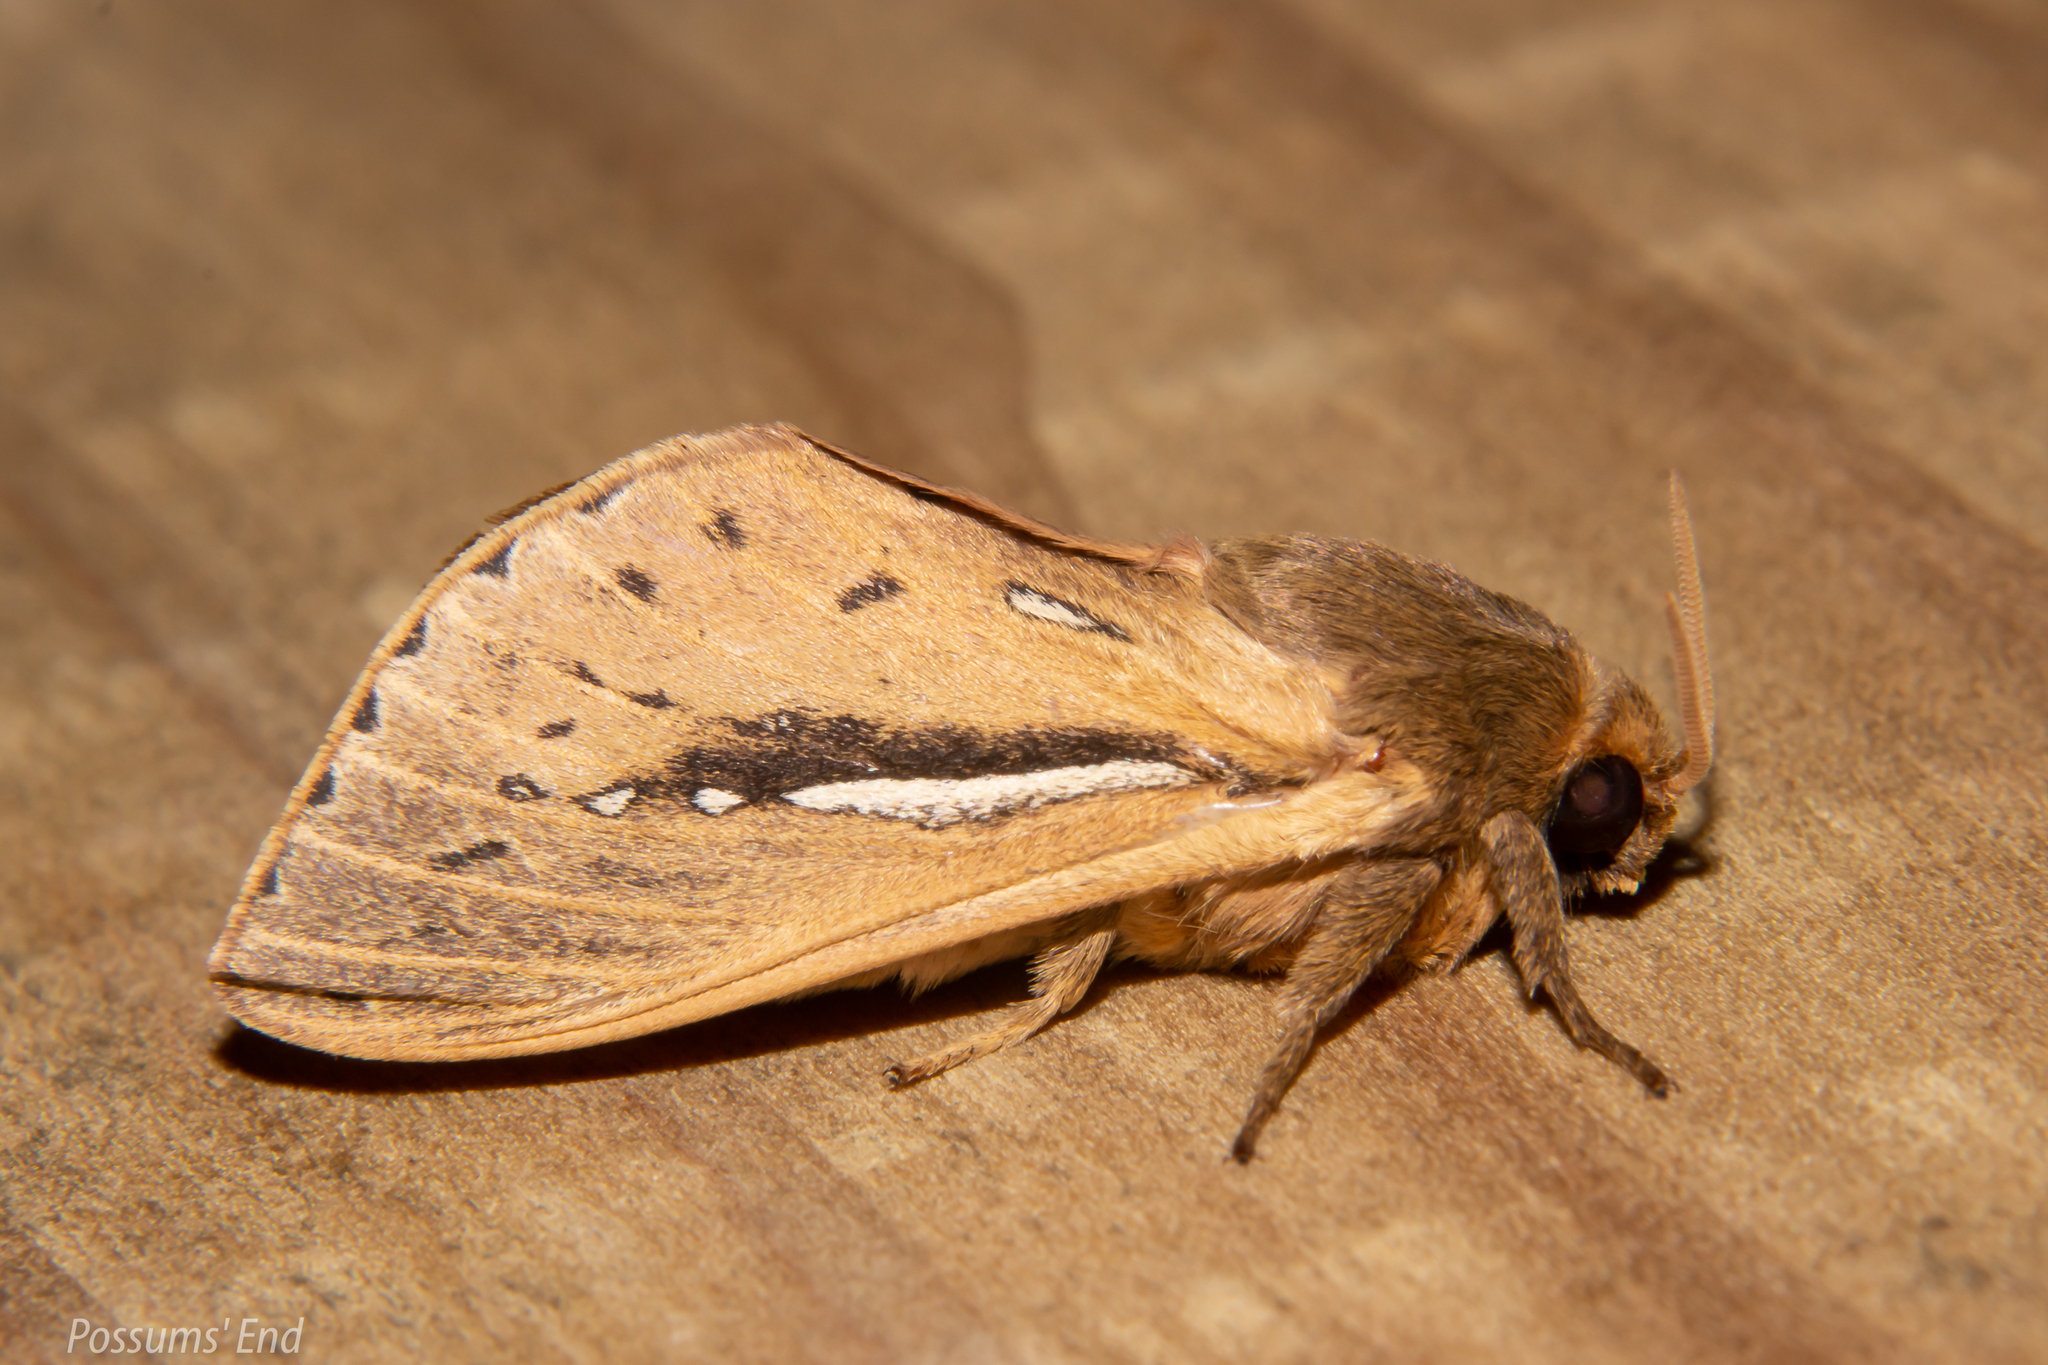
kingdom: Animalia
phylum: Arthropoda
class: Insecta
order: Lepidoptera
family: Hepialidae
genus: Wiseana
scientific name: Wiseana umbraculatus
